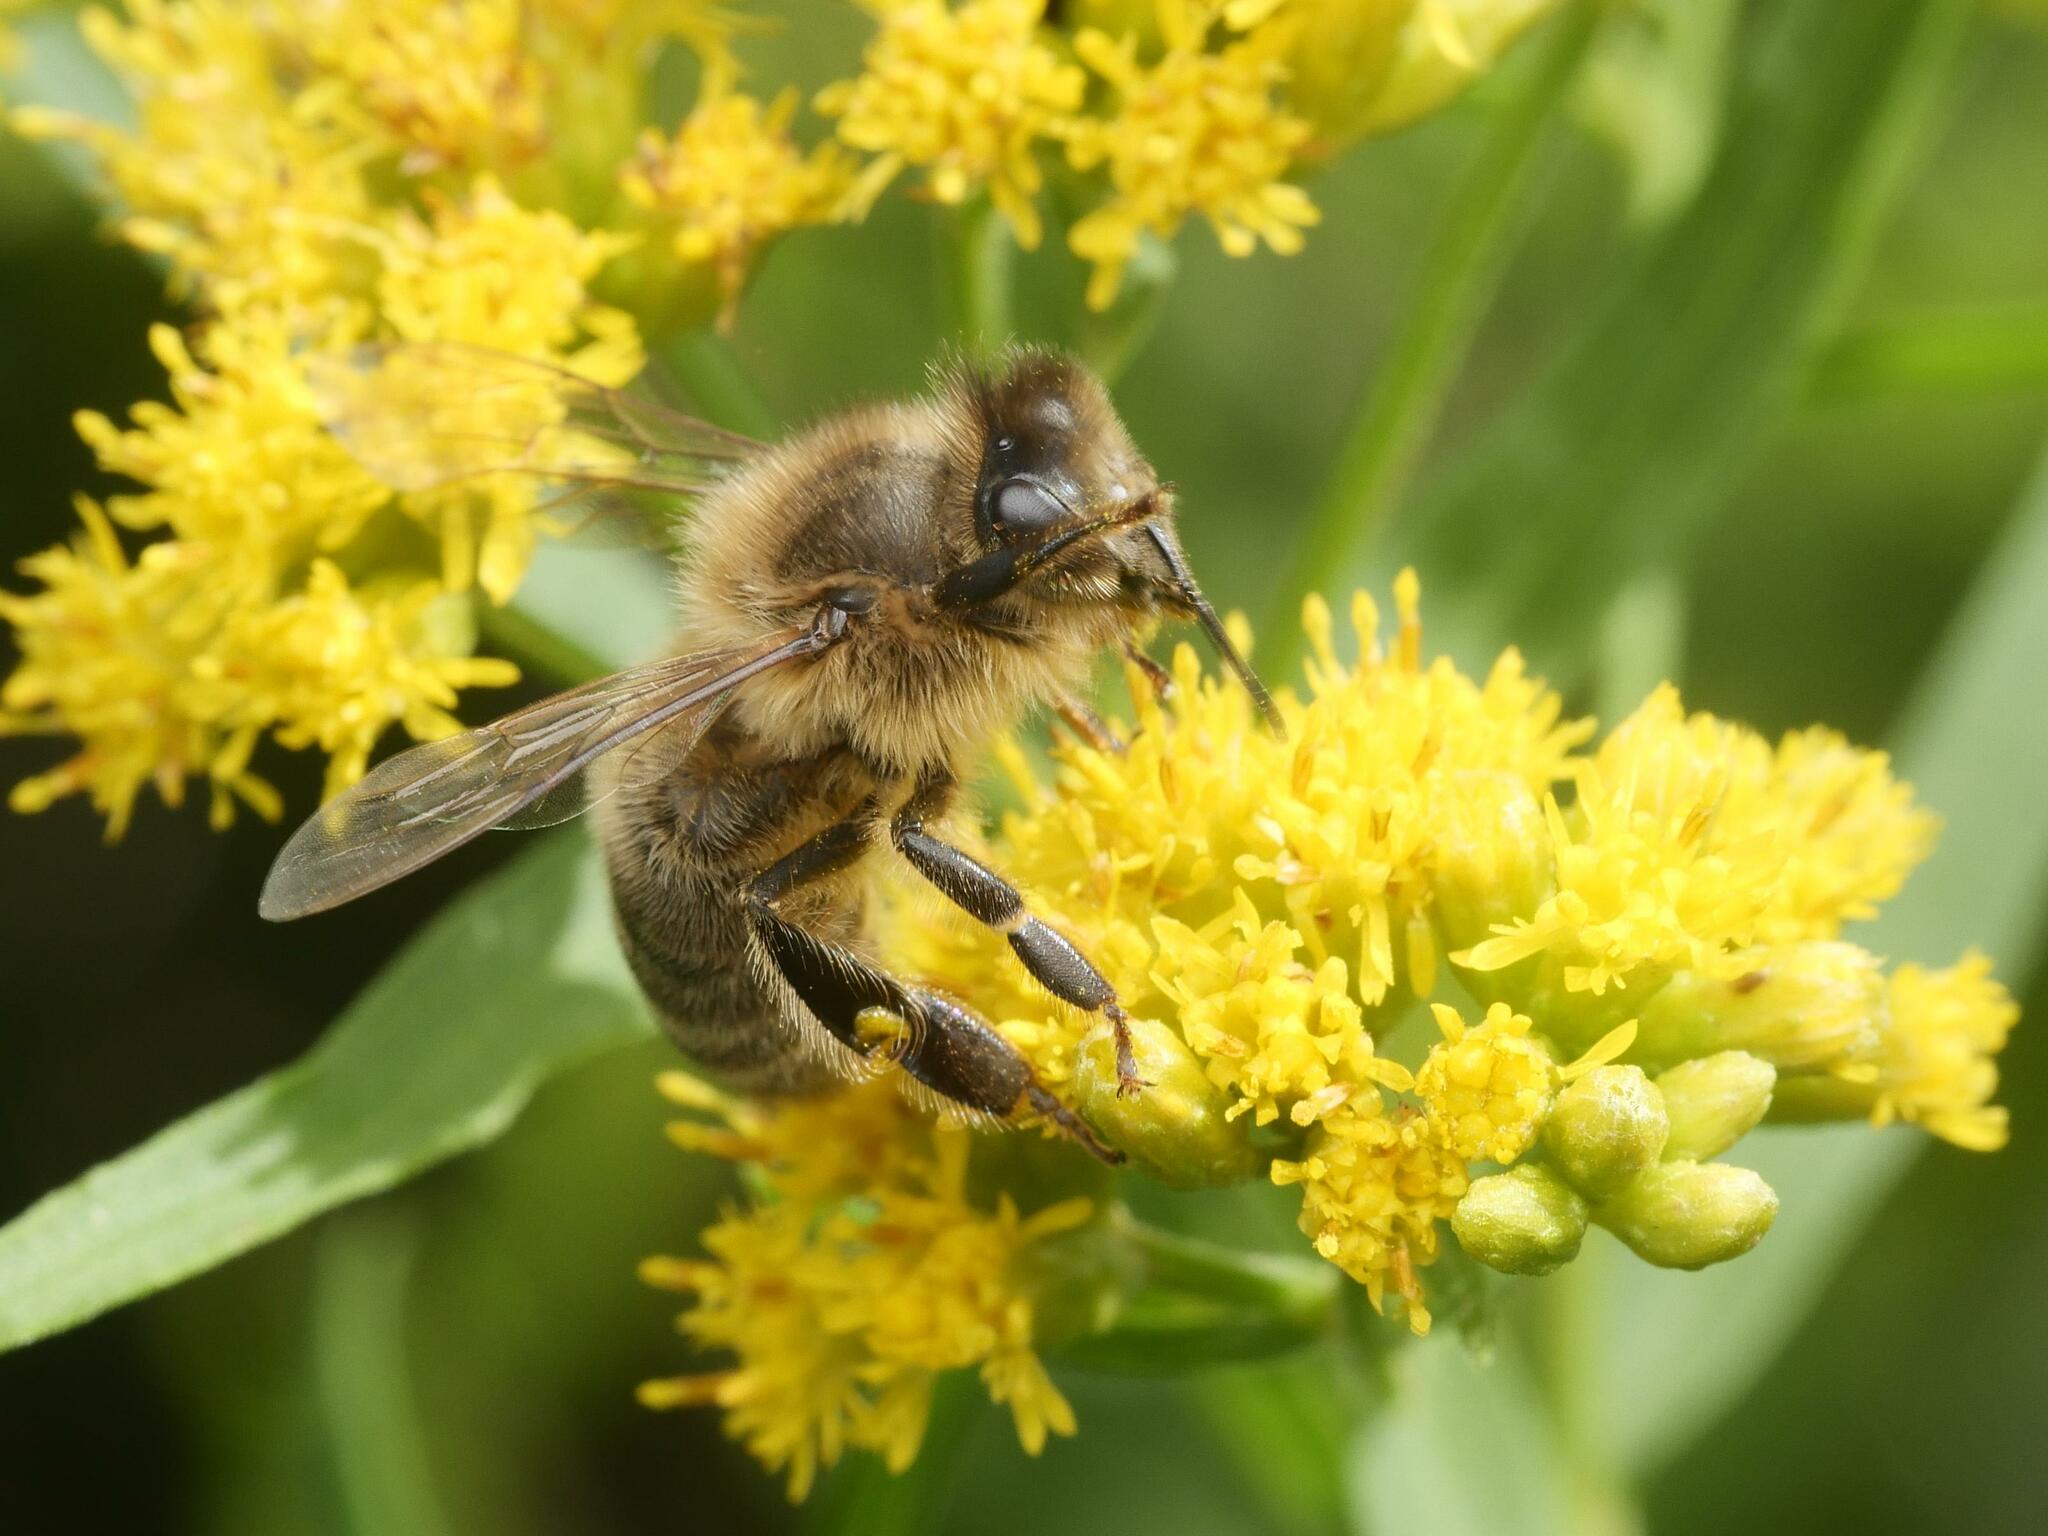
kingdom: Animalia
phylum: Arthropoda
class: Insecta
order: Hymenoptera
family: Apidae
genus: Apis
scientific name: Apis mellifera
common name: Honey bee
